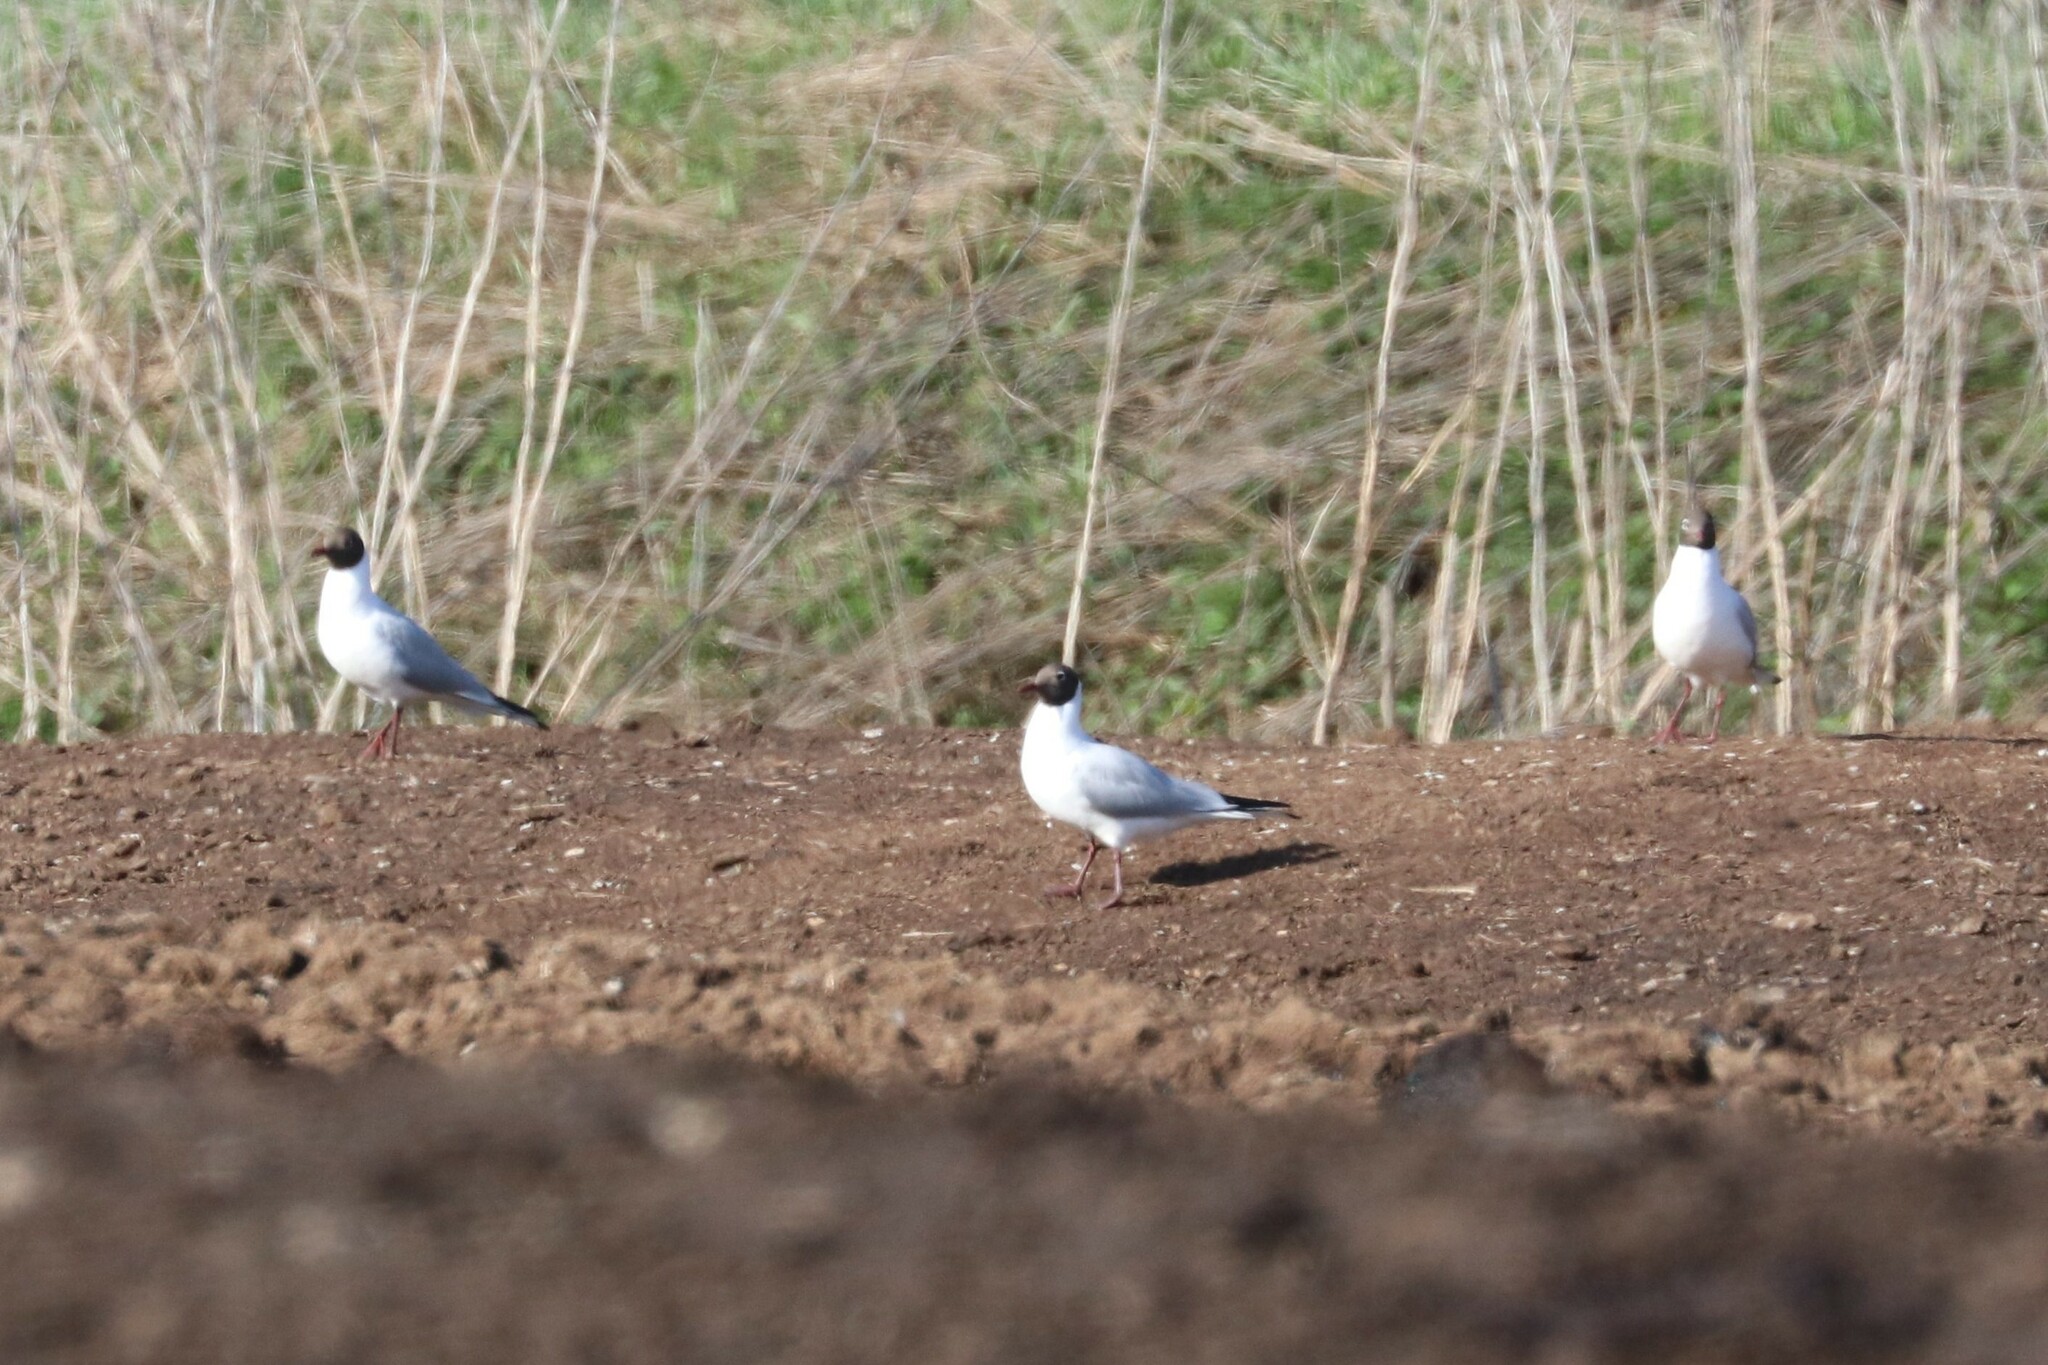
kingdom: Animalia
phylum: Chordata
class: Aves
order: Charadriiformes
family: Laridae
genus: Chroicocephalus
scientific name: Chroicocephalus ridibundus
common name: Black-headed gull
